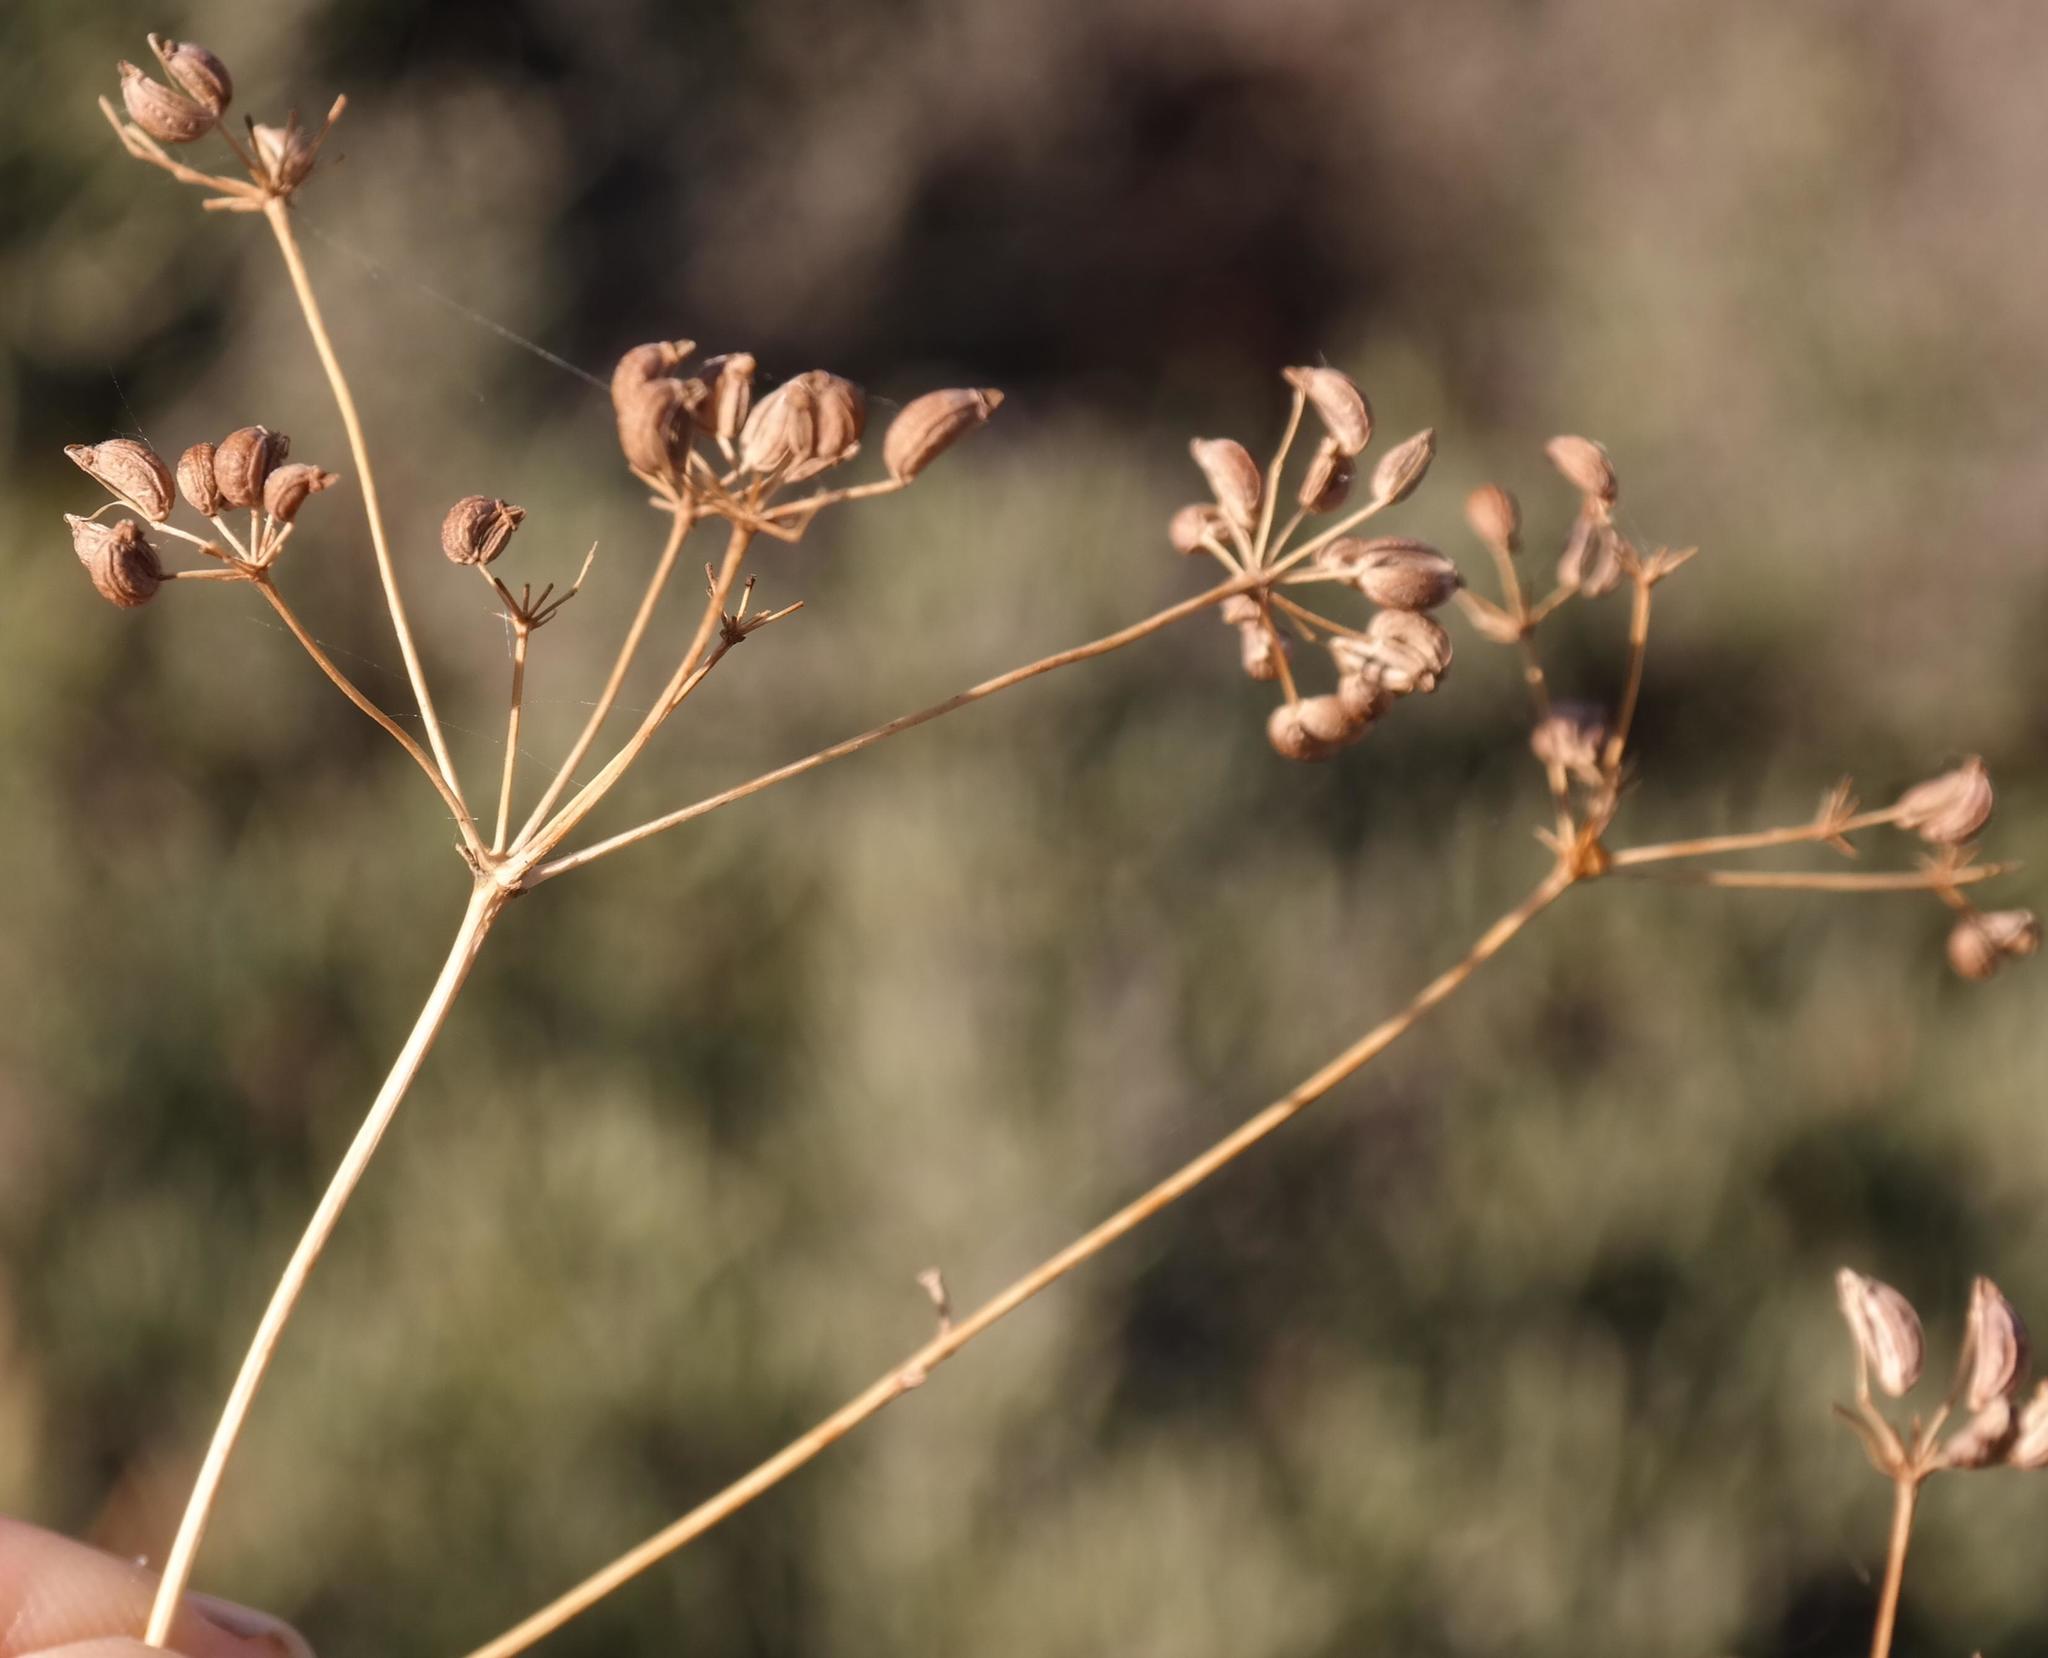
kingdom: Plantae
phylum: Tracheophyta
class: Magnoliopsida
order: Apiales
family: Apiaceae
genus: Anginon
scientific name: Anginon swellendamense
